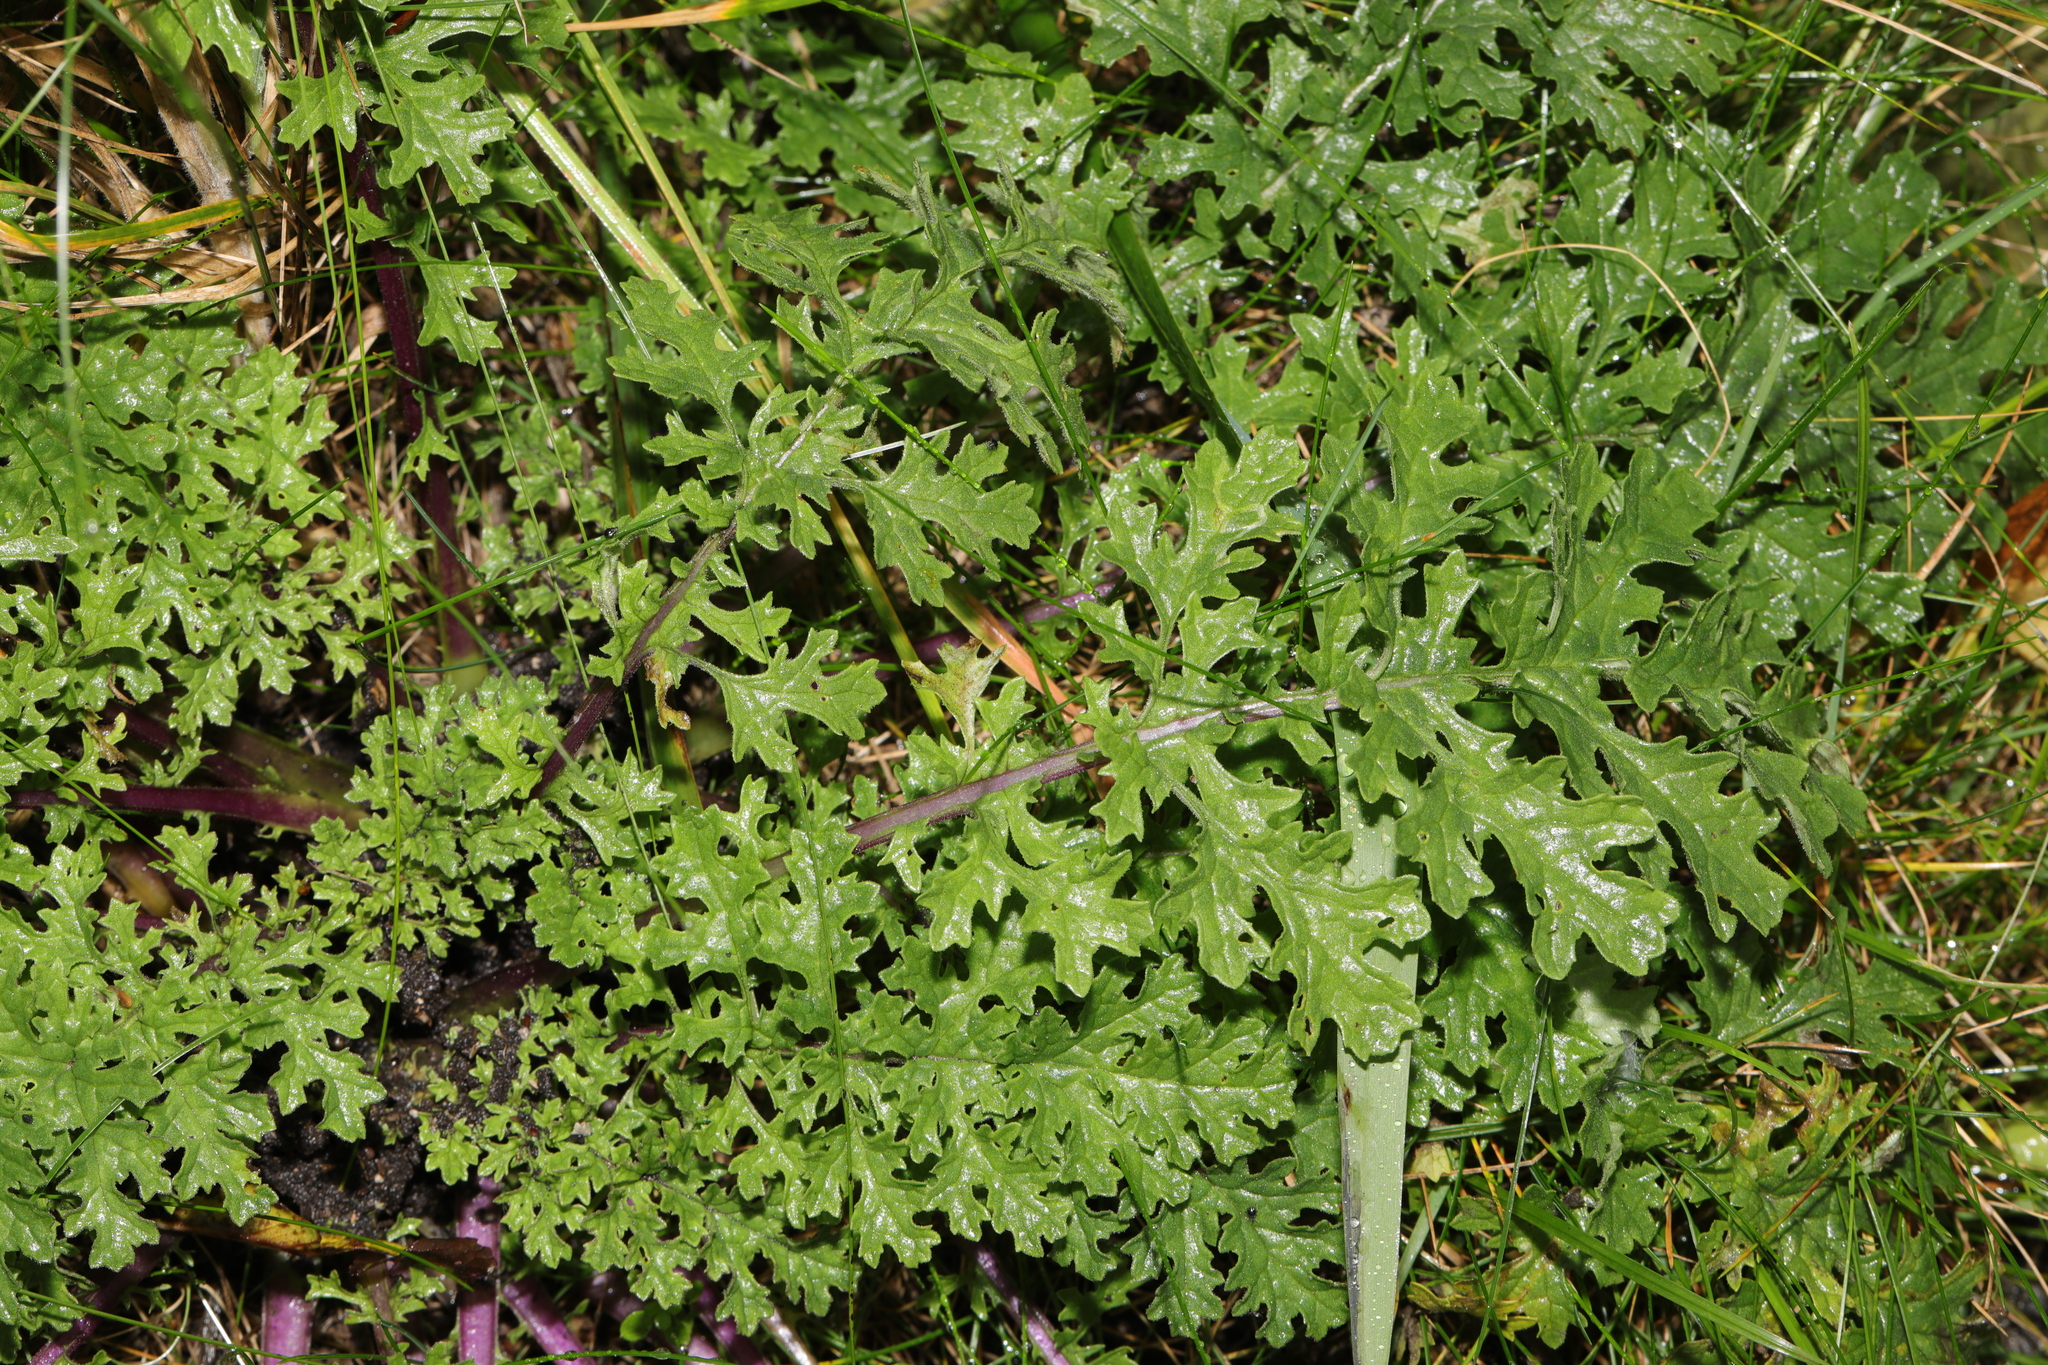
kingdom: Plantae
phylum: Tracheophyta
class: Magnoliopsida
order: Asterales
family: Asteraceae
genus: Jacobaea
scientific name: Jacobaea vulgaris
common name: Stinking willie
